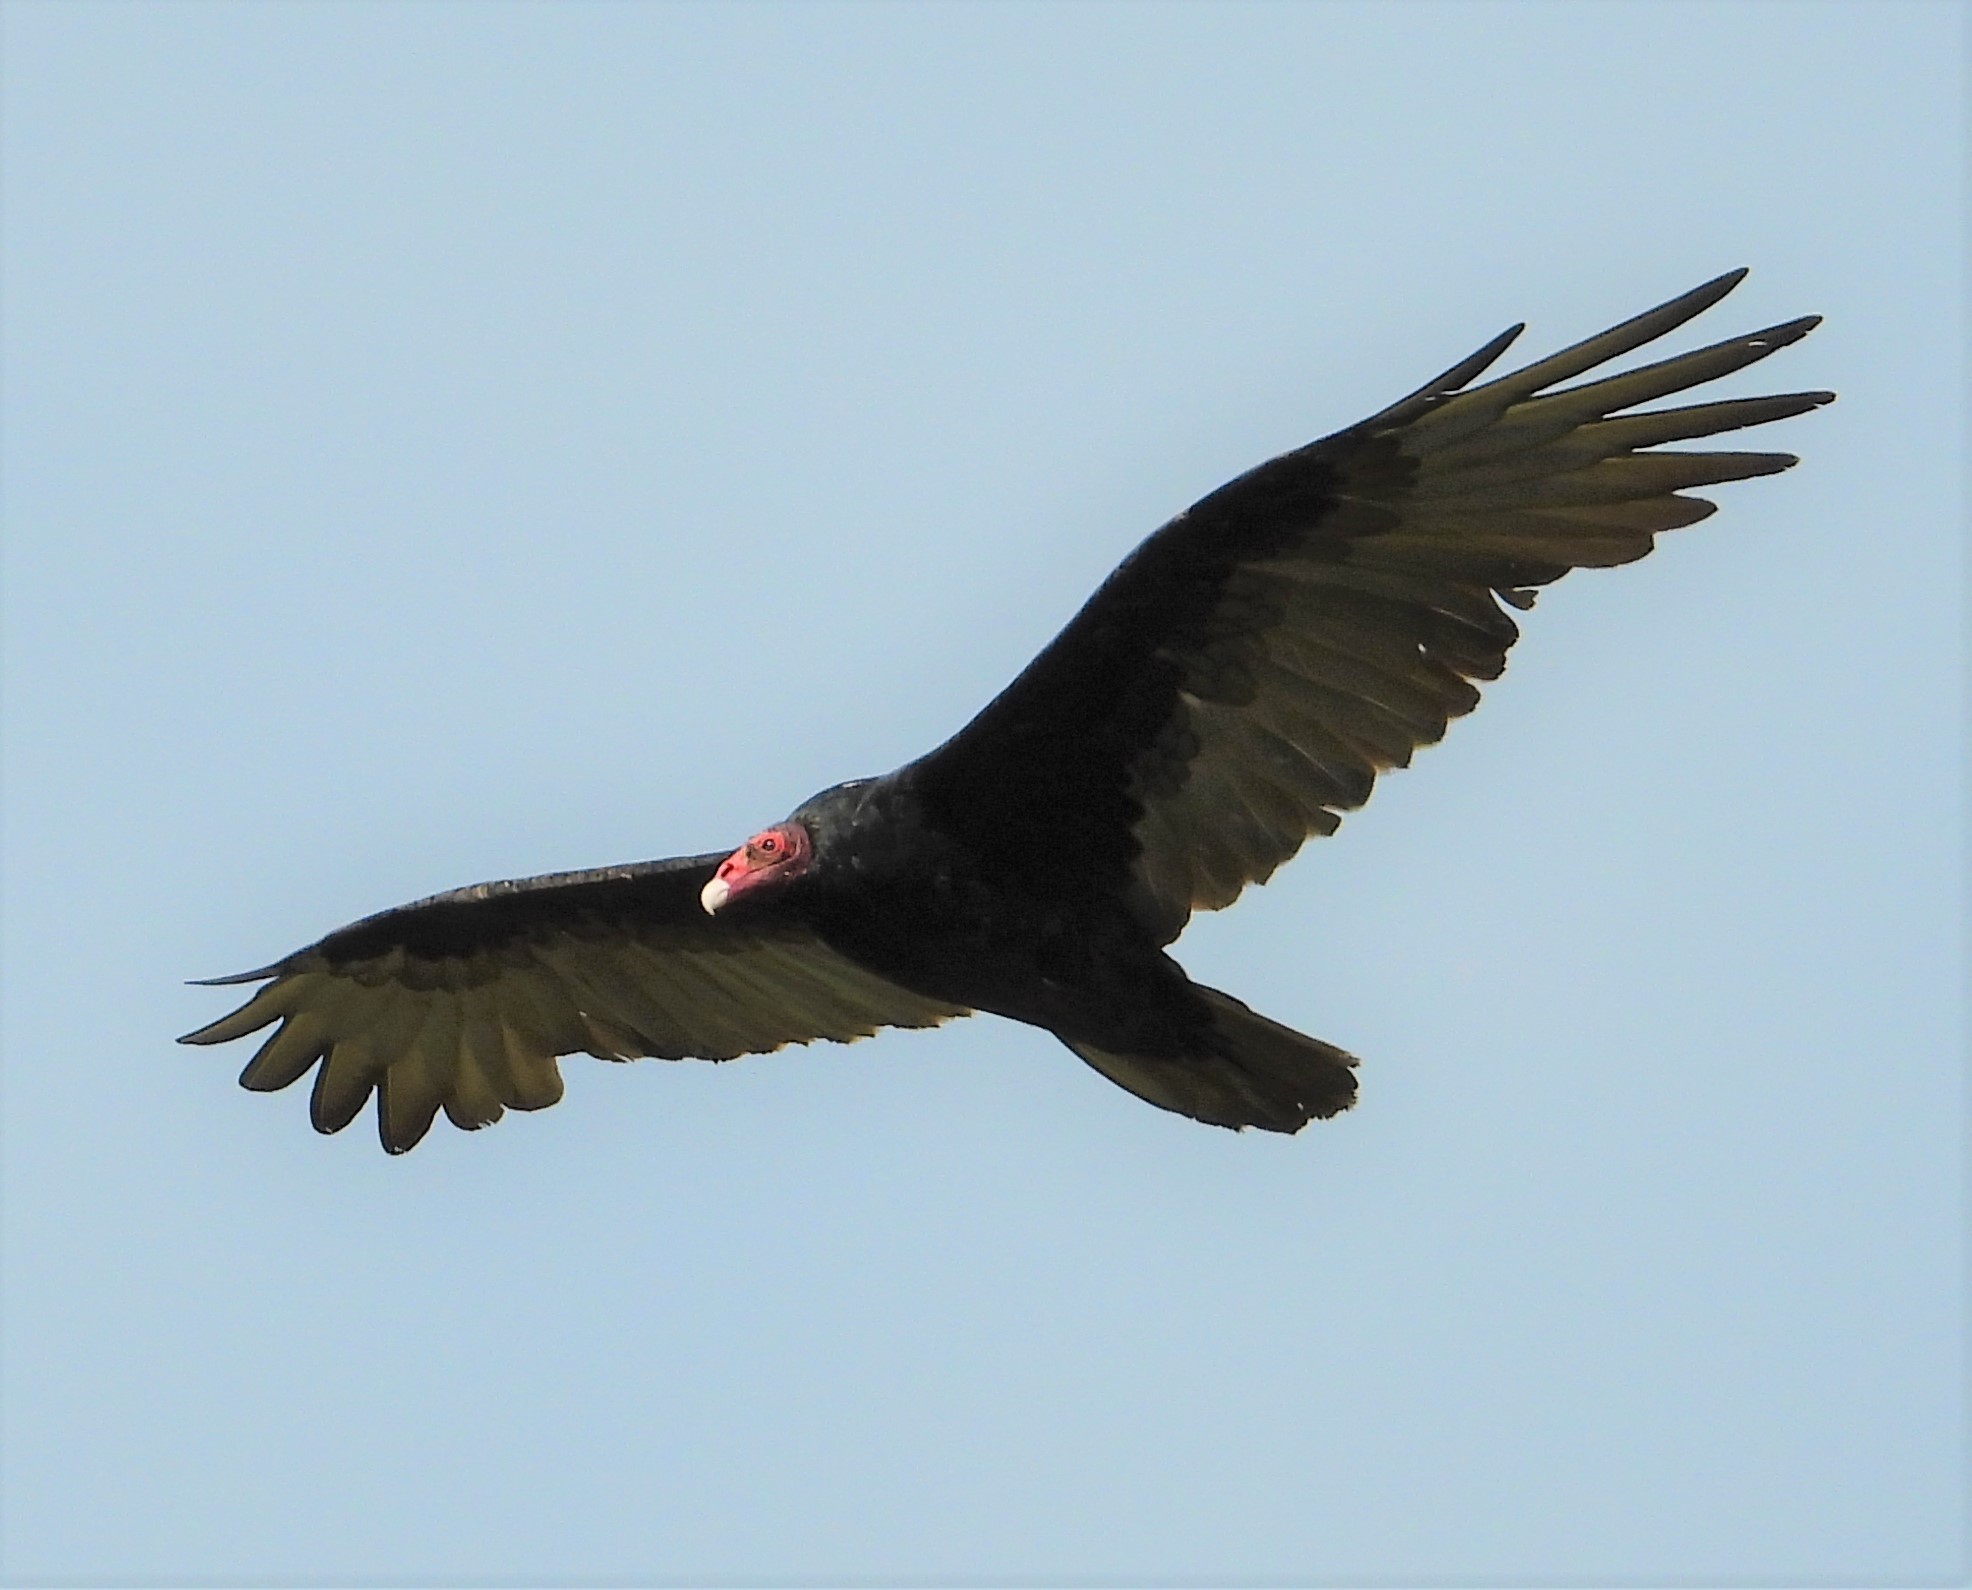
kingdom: Animalia
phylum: Chordata
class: Aves
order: Accipitriformes
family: Cathartidae
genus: Cathartes
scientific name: Cathartes aura
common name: Turkey vulture
